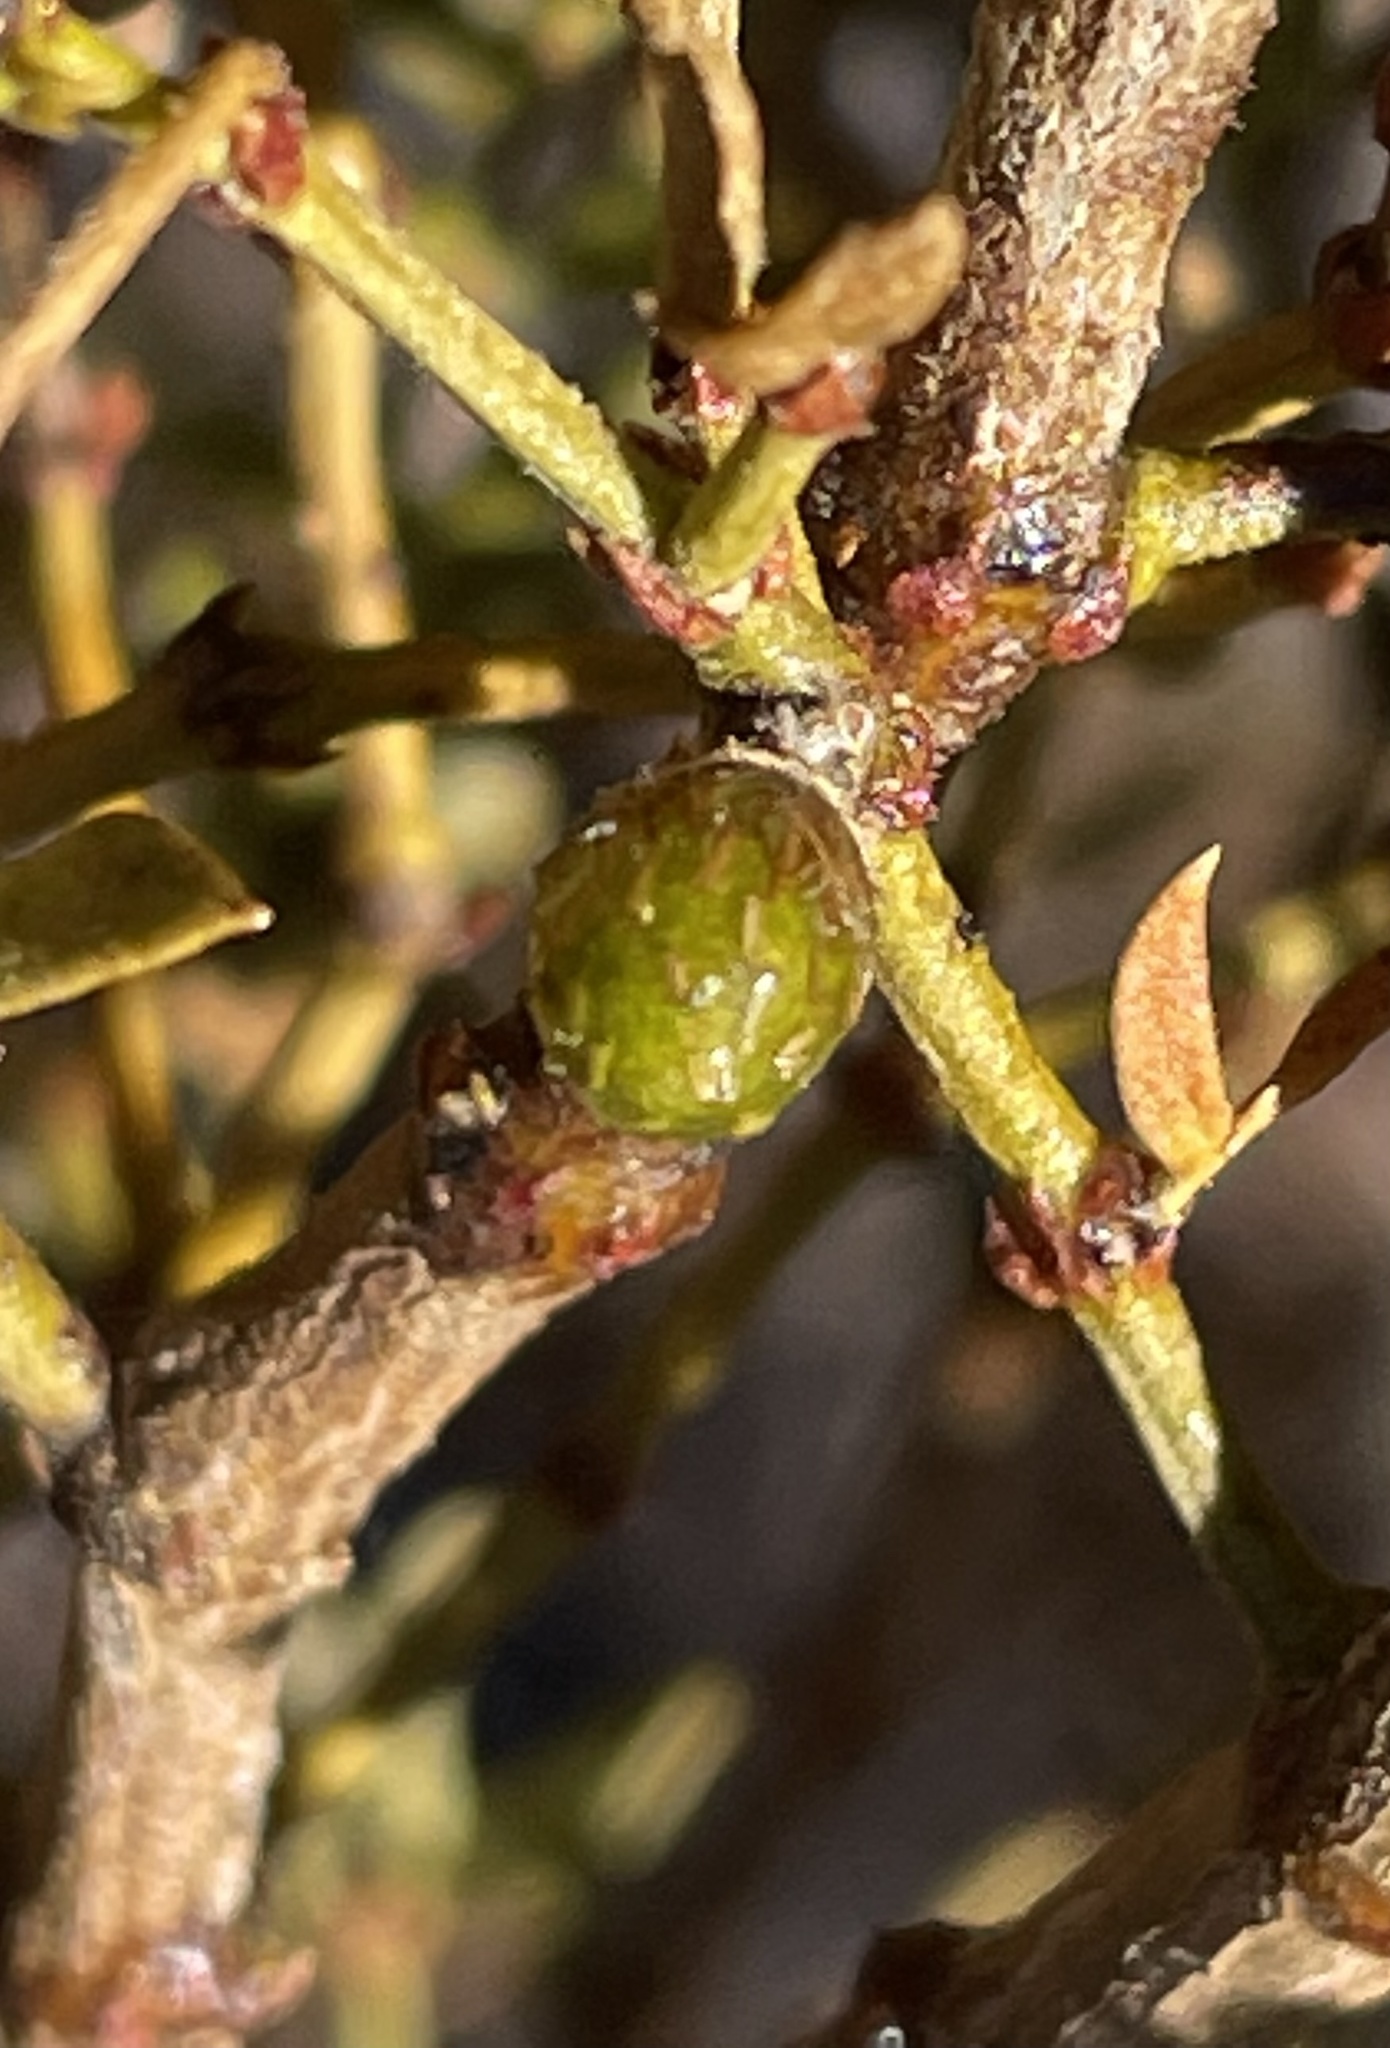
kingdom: Animalia
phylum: Arthropoda
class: Insecta
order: Diptera
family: Cecidomyiidae
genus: Asphondylia
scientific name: Asphondylia resinosa
